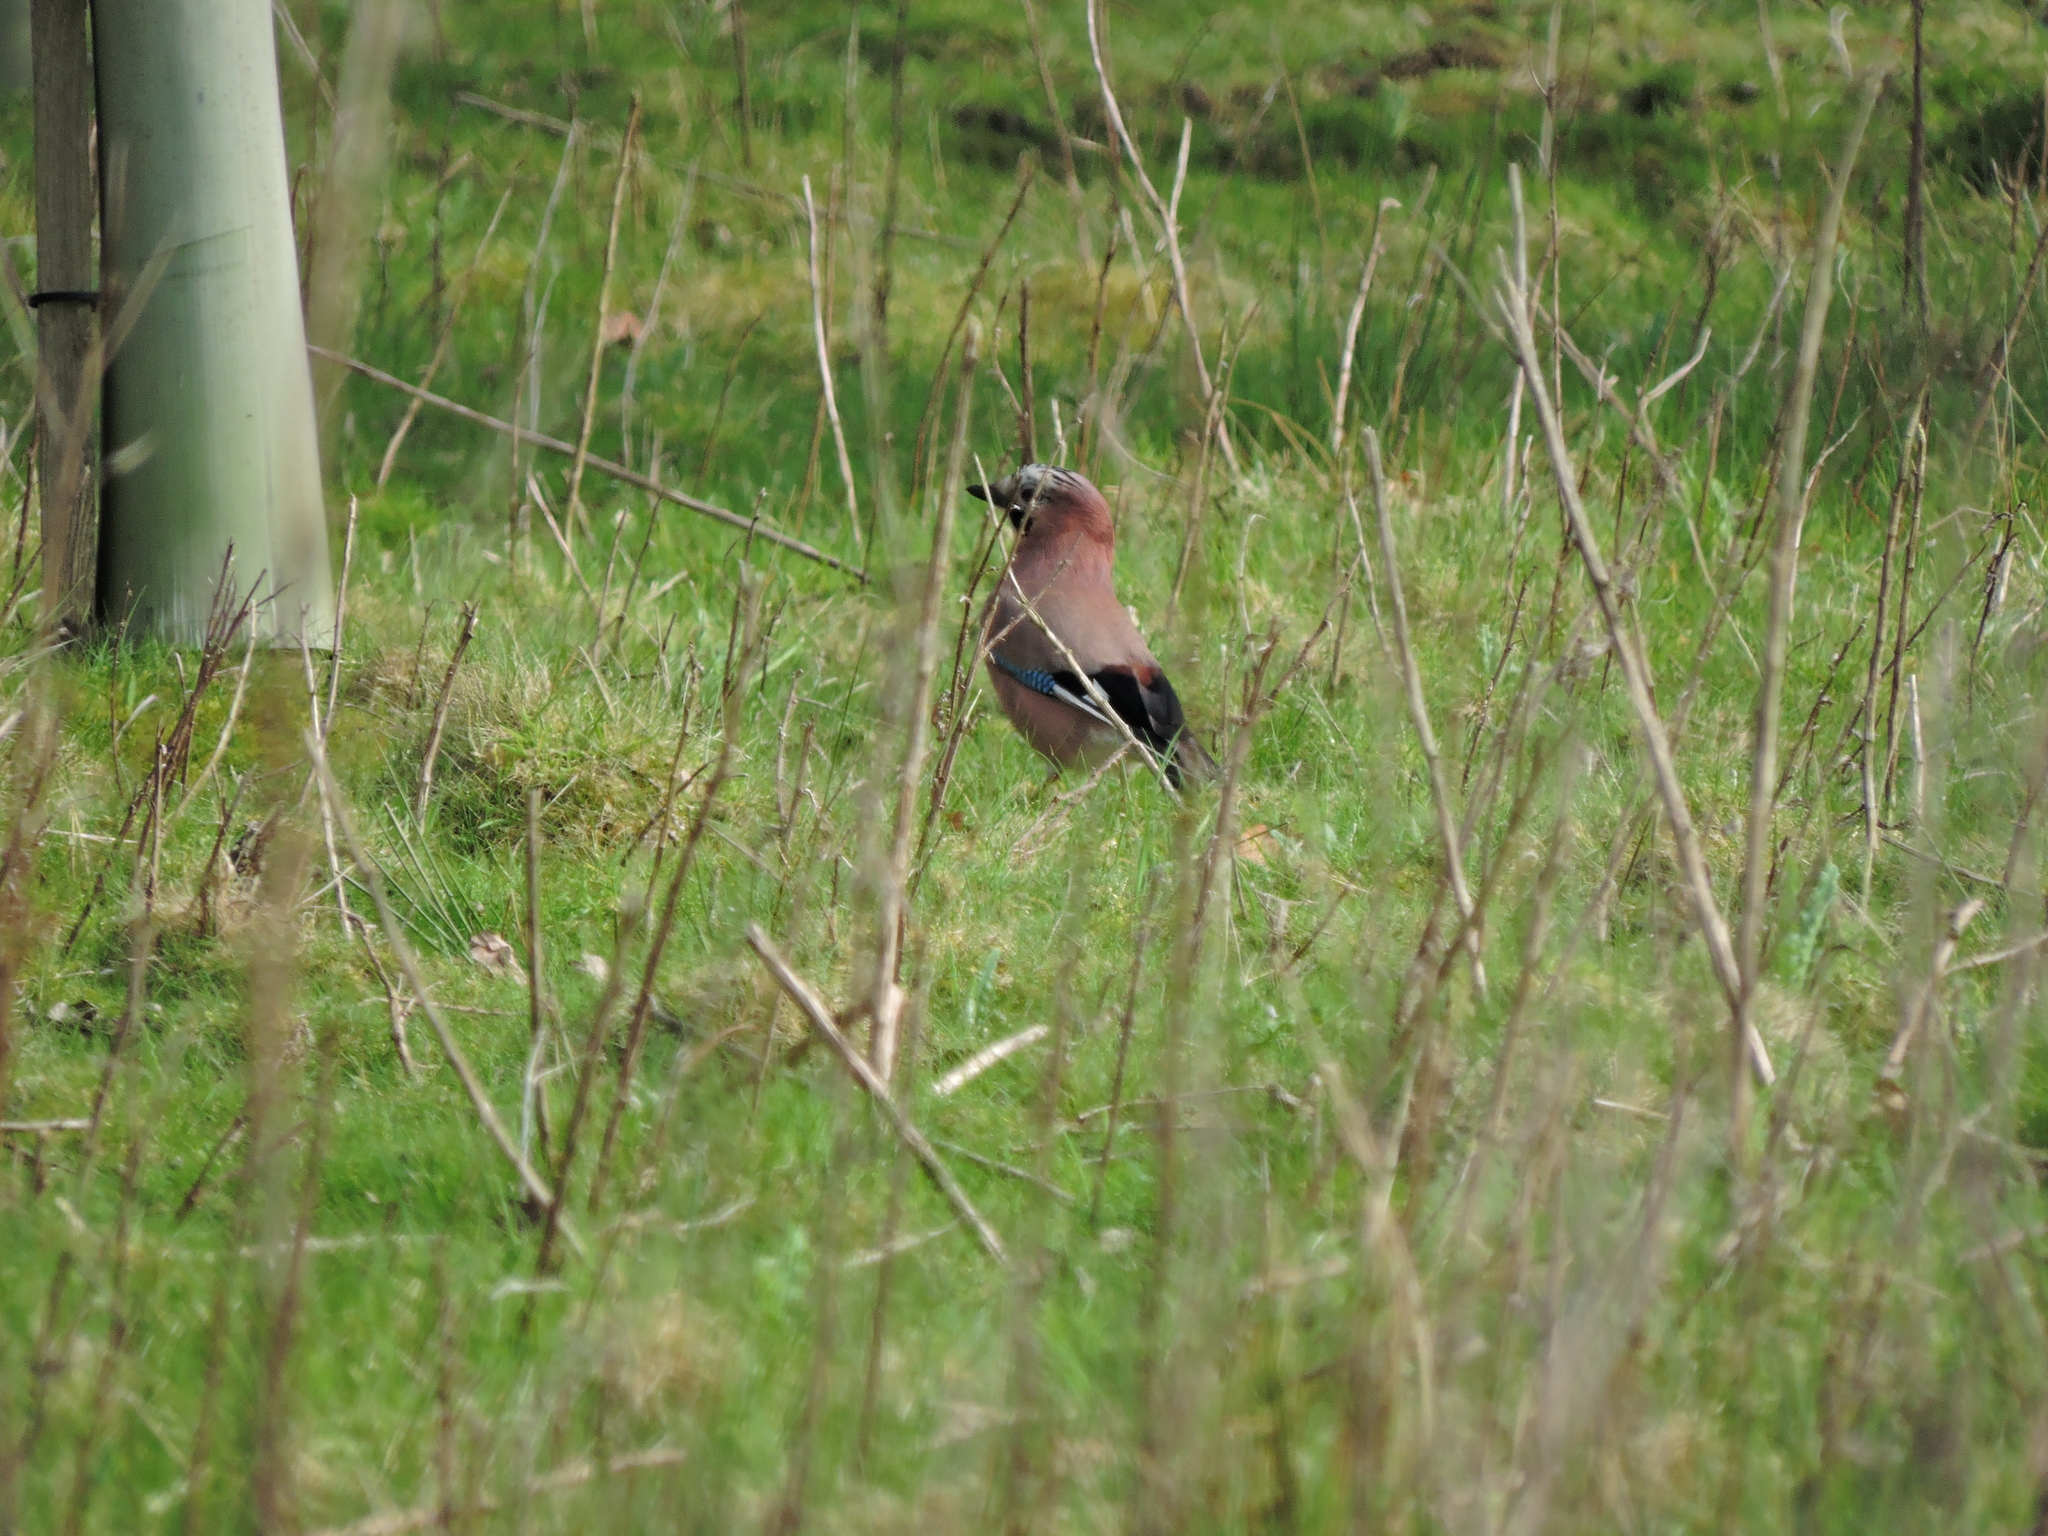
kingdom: Animalia
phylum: Chordata
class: Aves
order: Passeriformes
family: Corvidae
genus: Garrulus
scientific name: Garrulus glandarius
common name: Eurasian jay
